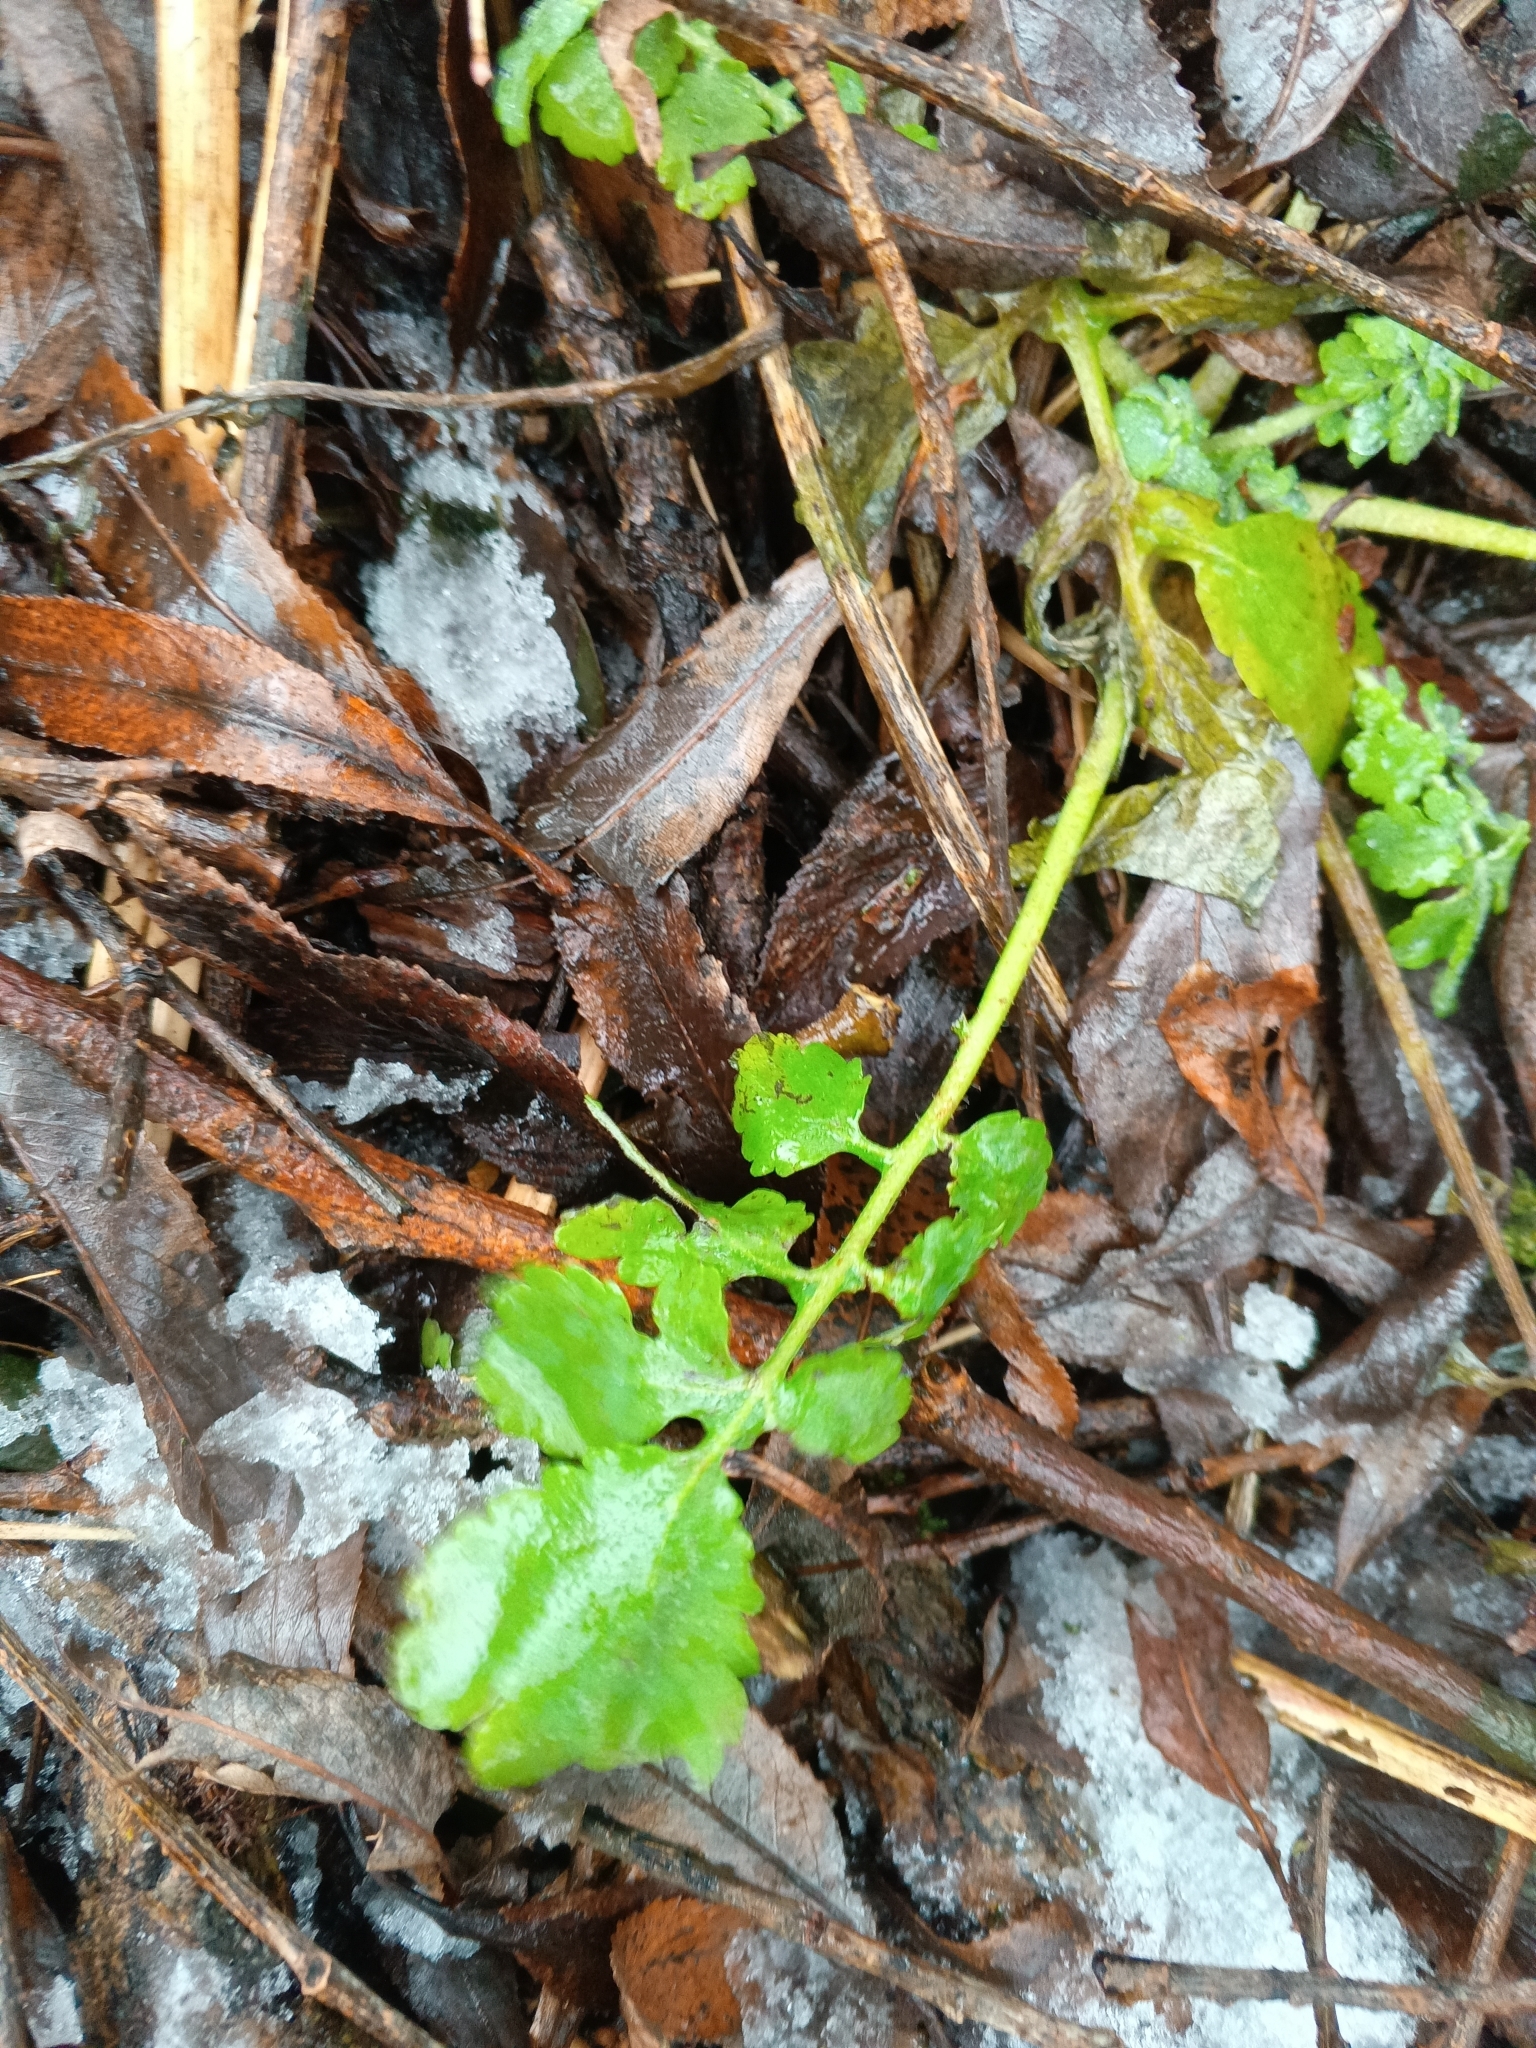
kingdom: Plantae
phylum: Tracheophyta
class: Magnoliopsida
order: Ranunculales
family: Papaveraceae
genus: Chelidonium
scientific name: Chelidonium majus
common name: Greater celandine
